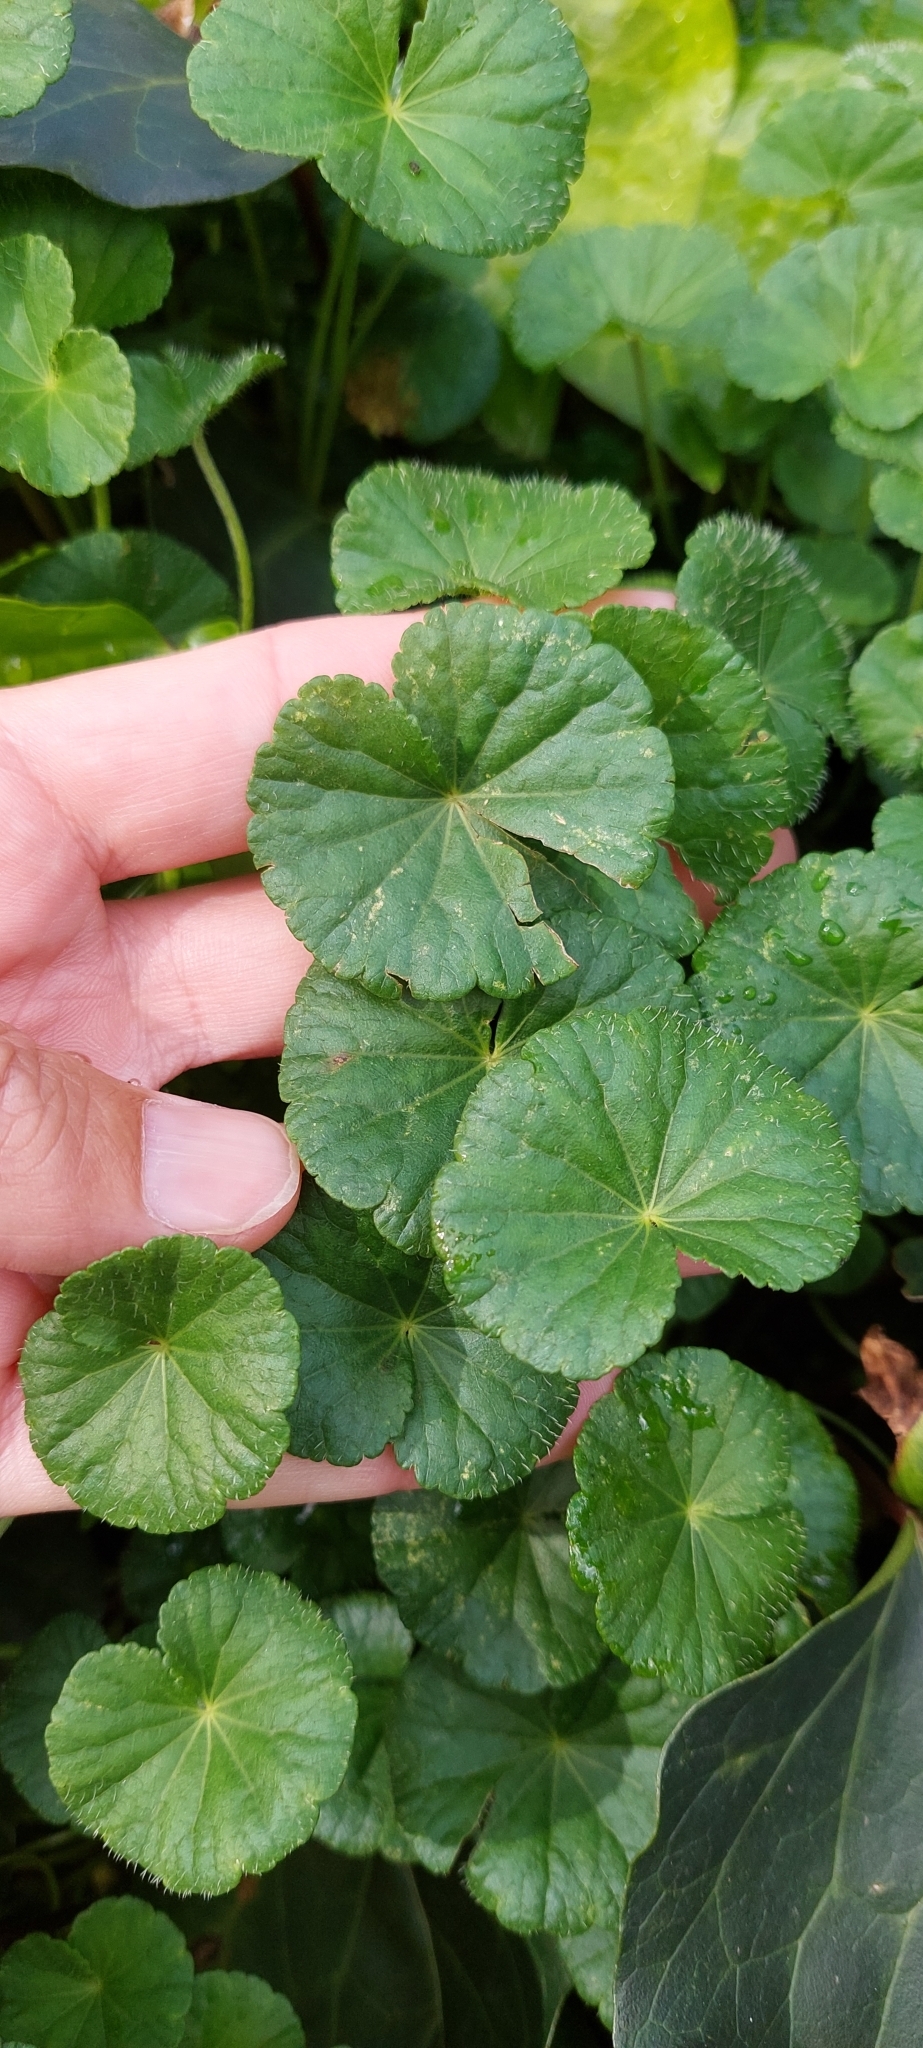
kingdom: Plantae
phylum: Tracheophyta
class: Magnoliopsida
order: Apiales
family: Araliaceae
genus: Hydrocotyle
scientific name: Hydrocotyle bonplandii
